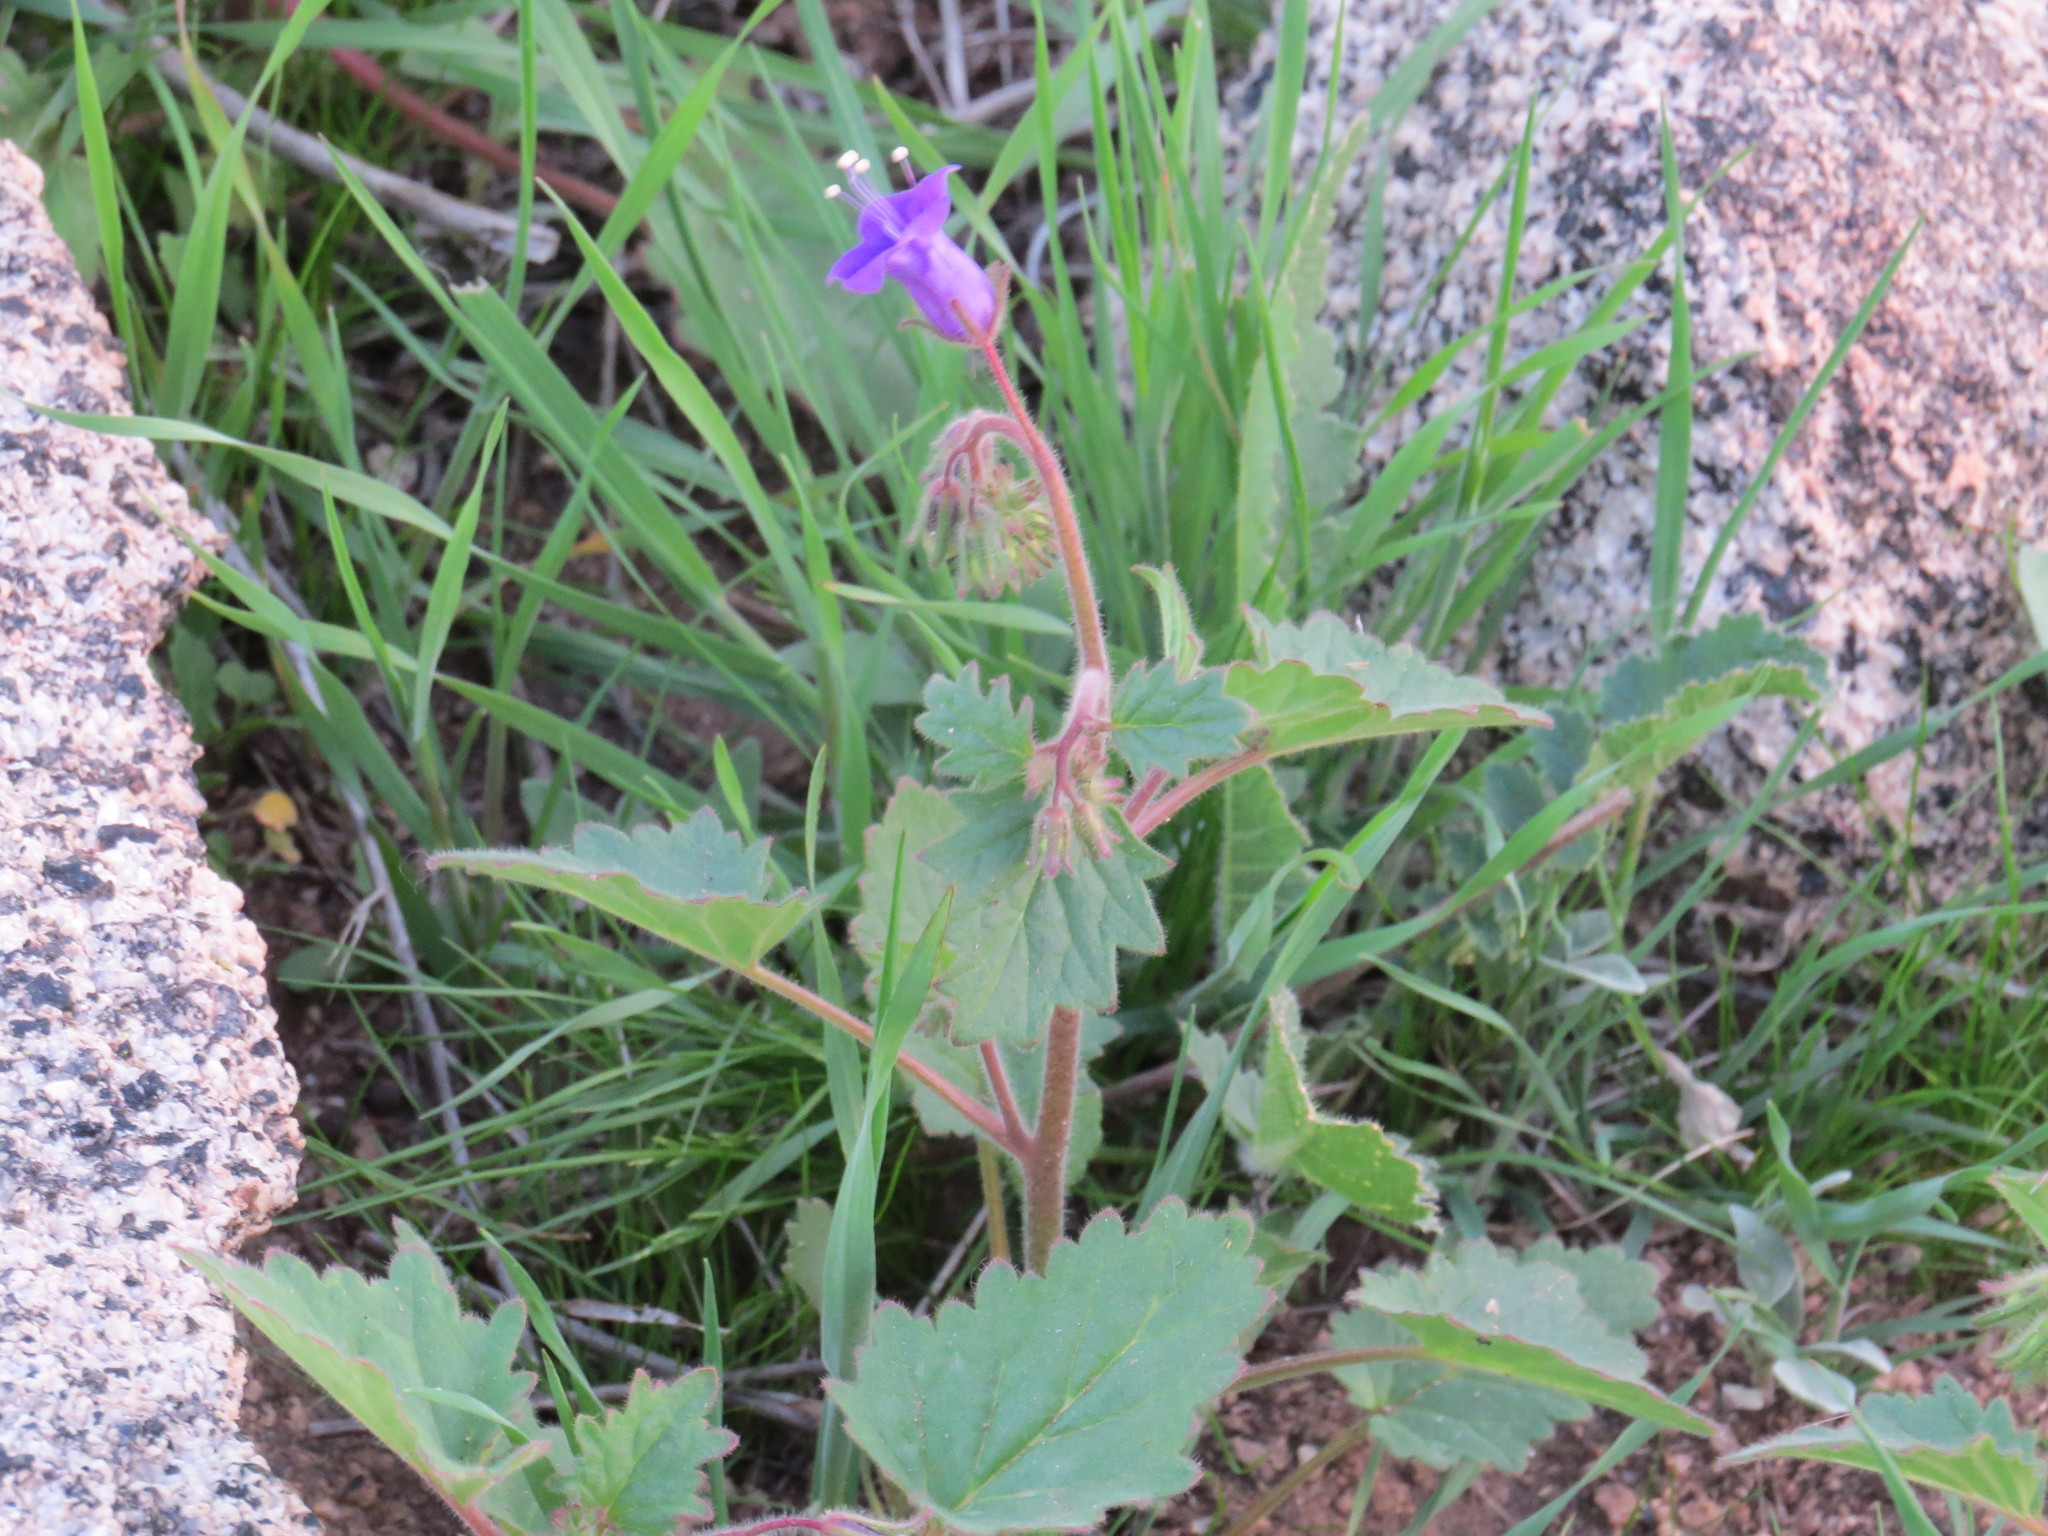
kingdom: Plantae
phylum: Tracheophyta
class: Magnoliopsida
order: Boraginales
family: Hydrophyllaceae
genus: Phacelia
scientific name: Phacelia minor
